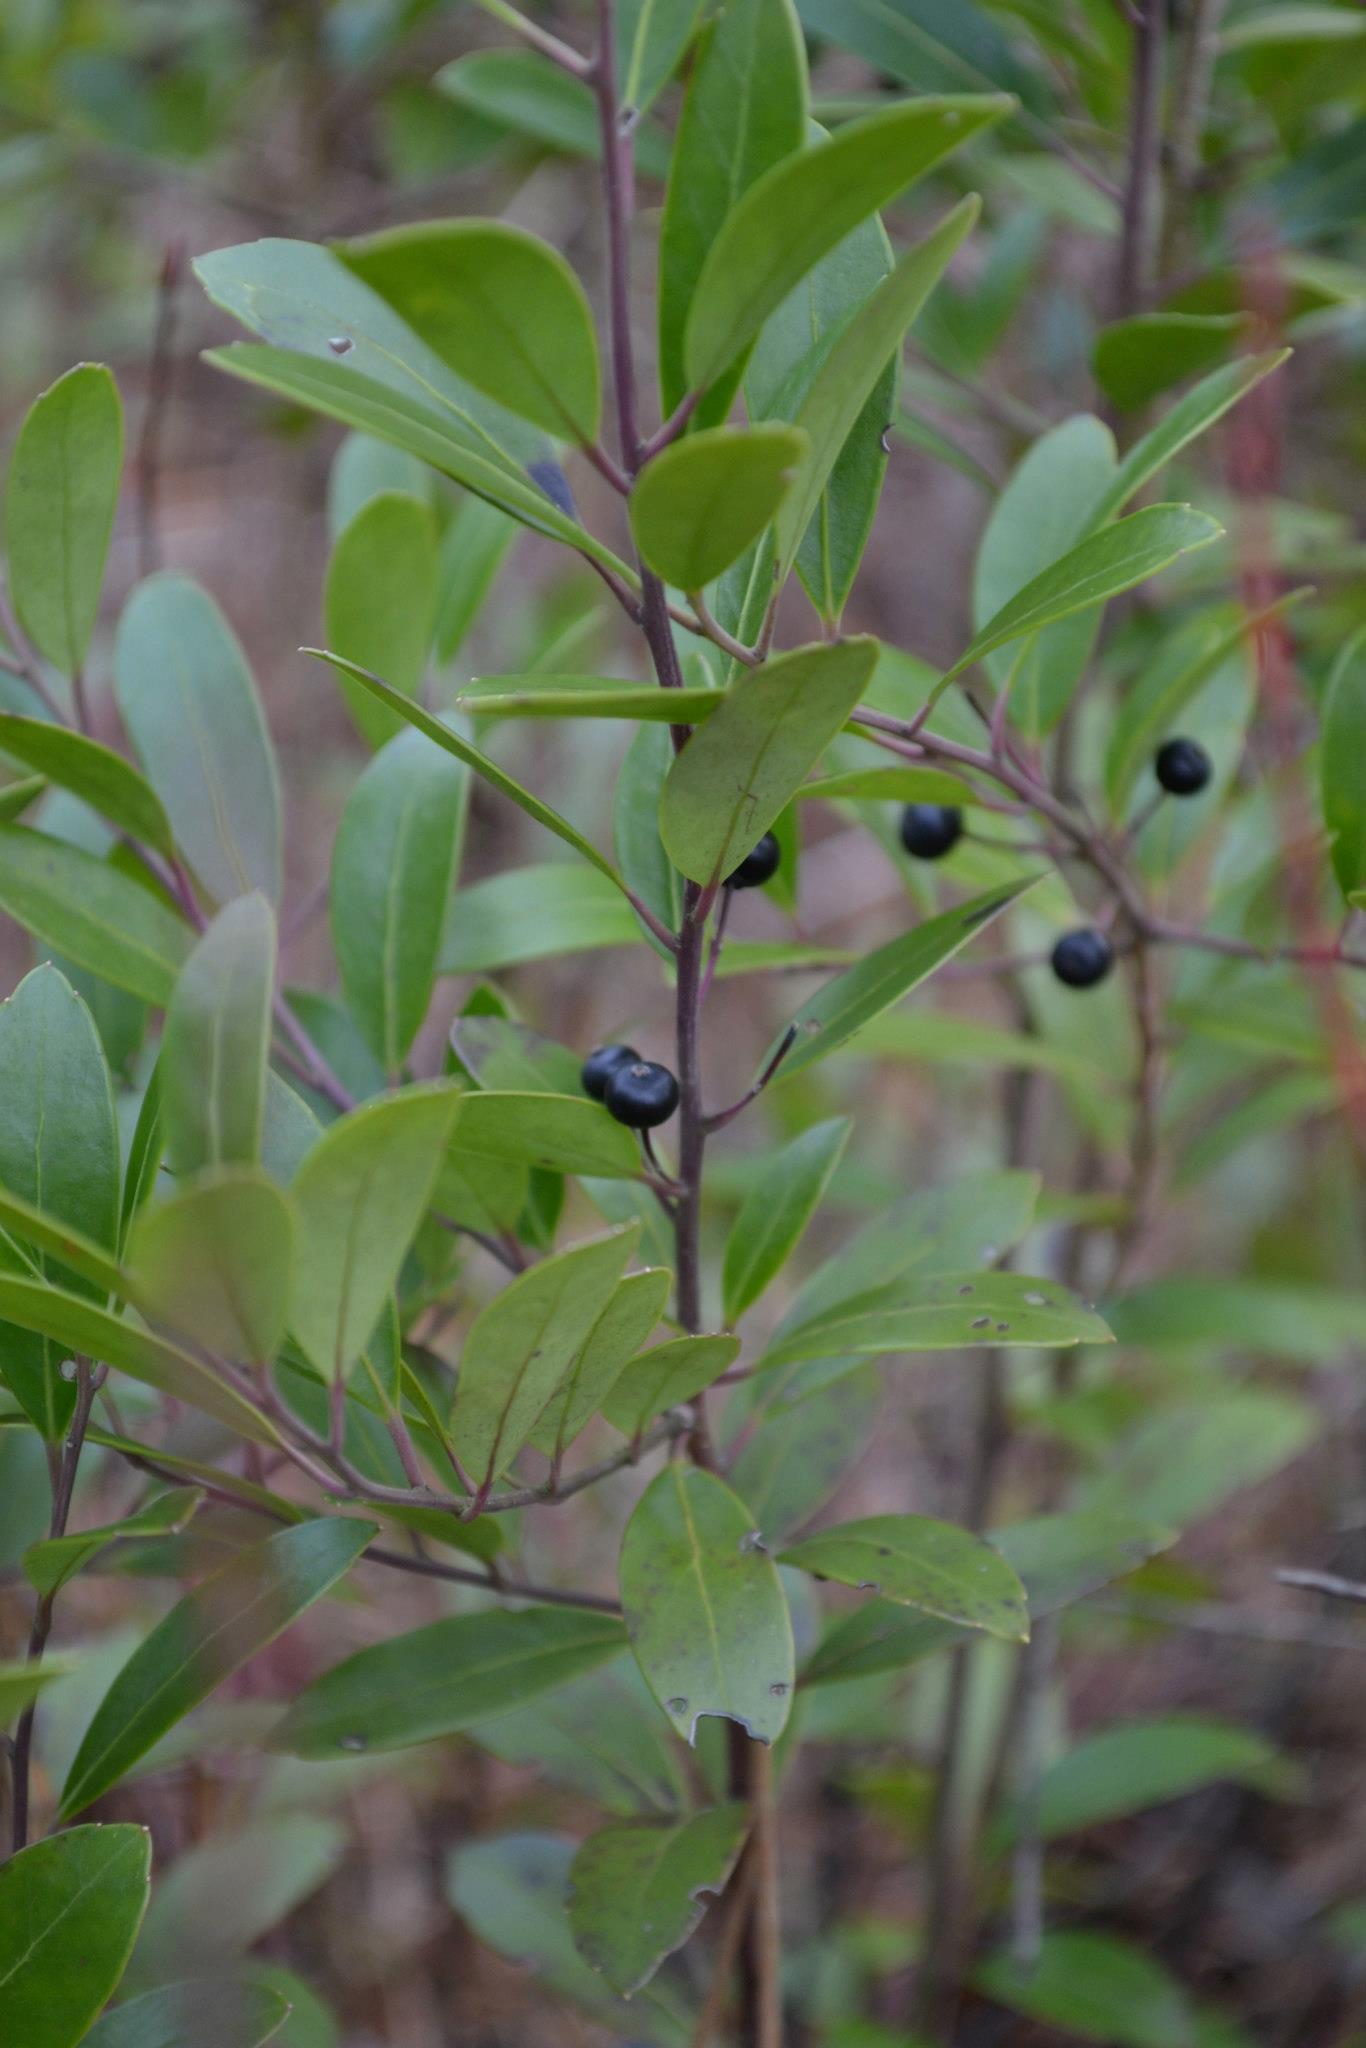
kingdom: Plantae
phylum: Tracheophyta
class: Magnoliopsida
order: Aquifoliales
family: Aquifoliaceae
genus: Ilex
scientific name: Ilex glabra
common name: Bitter gallberry
